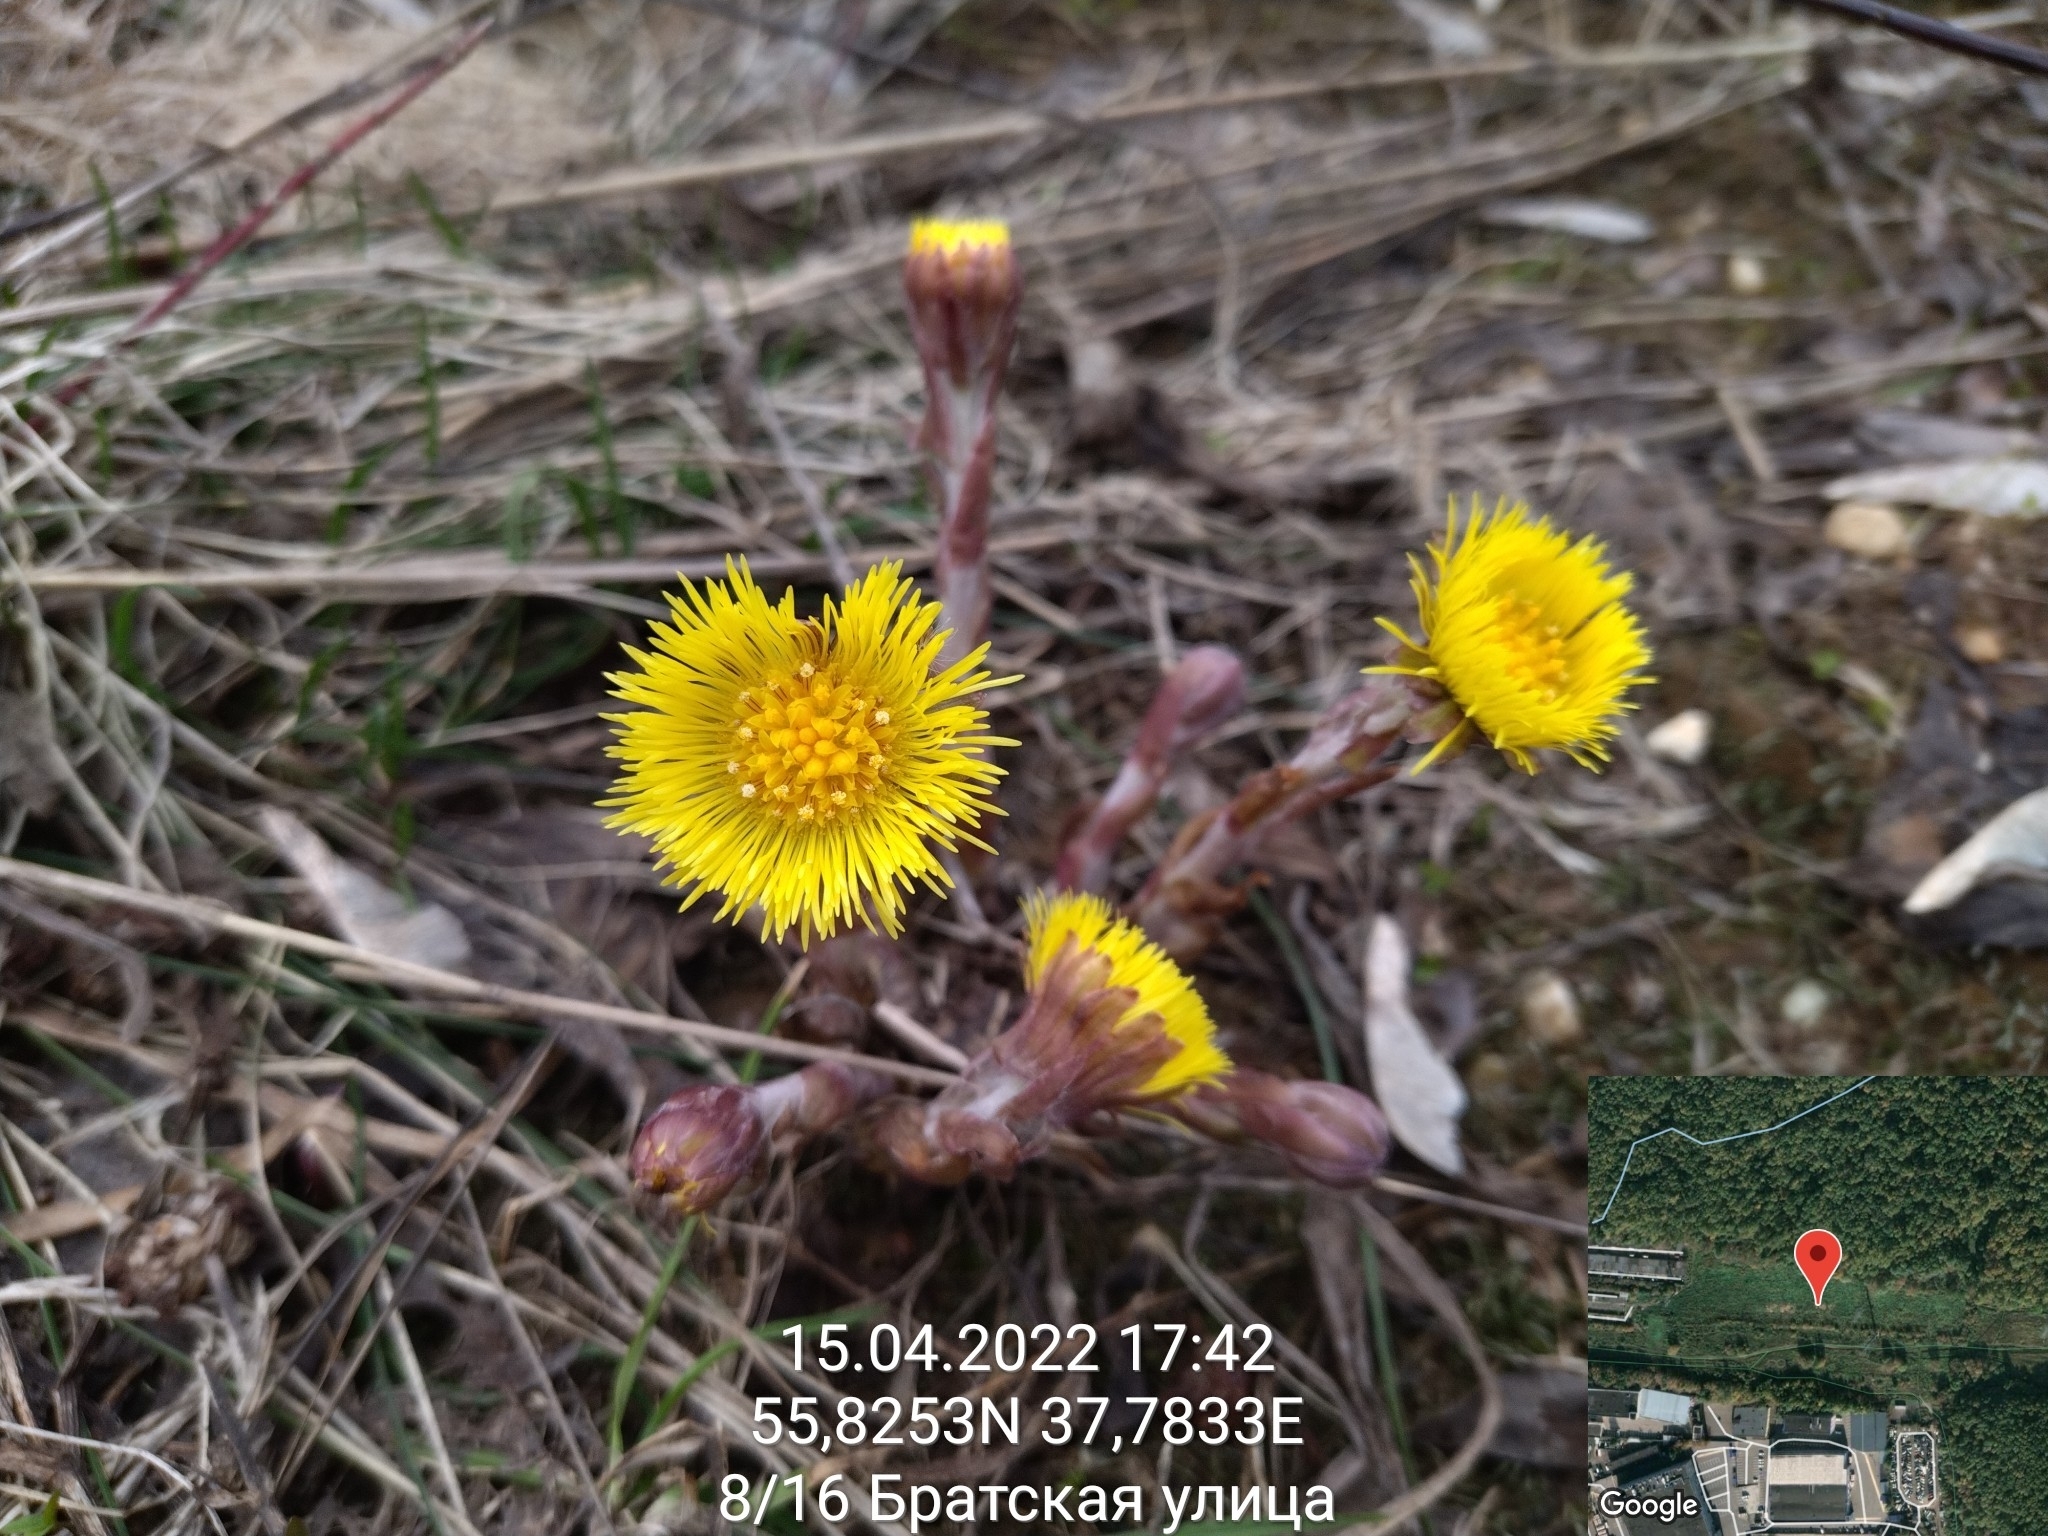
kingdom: Plantae
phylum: Tracheophyta
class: Magnoliopsida
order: Asterales
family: Asteraceae
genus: Tussilago
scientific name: Tussilago farfara
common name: Coltsfoot
